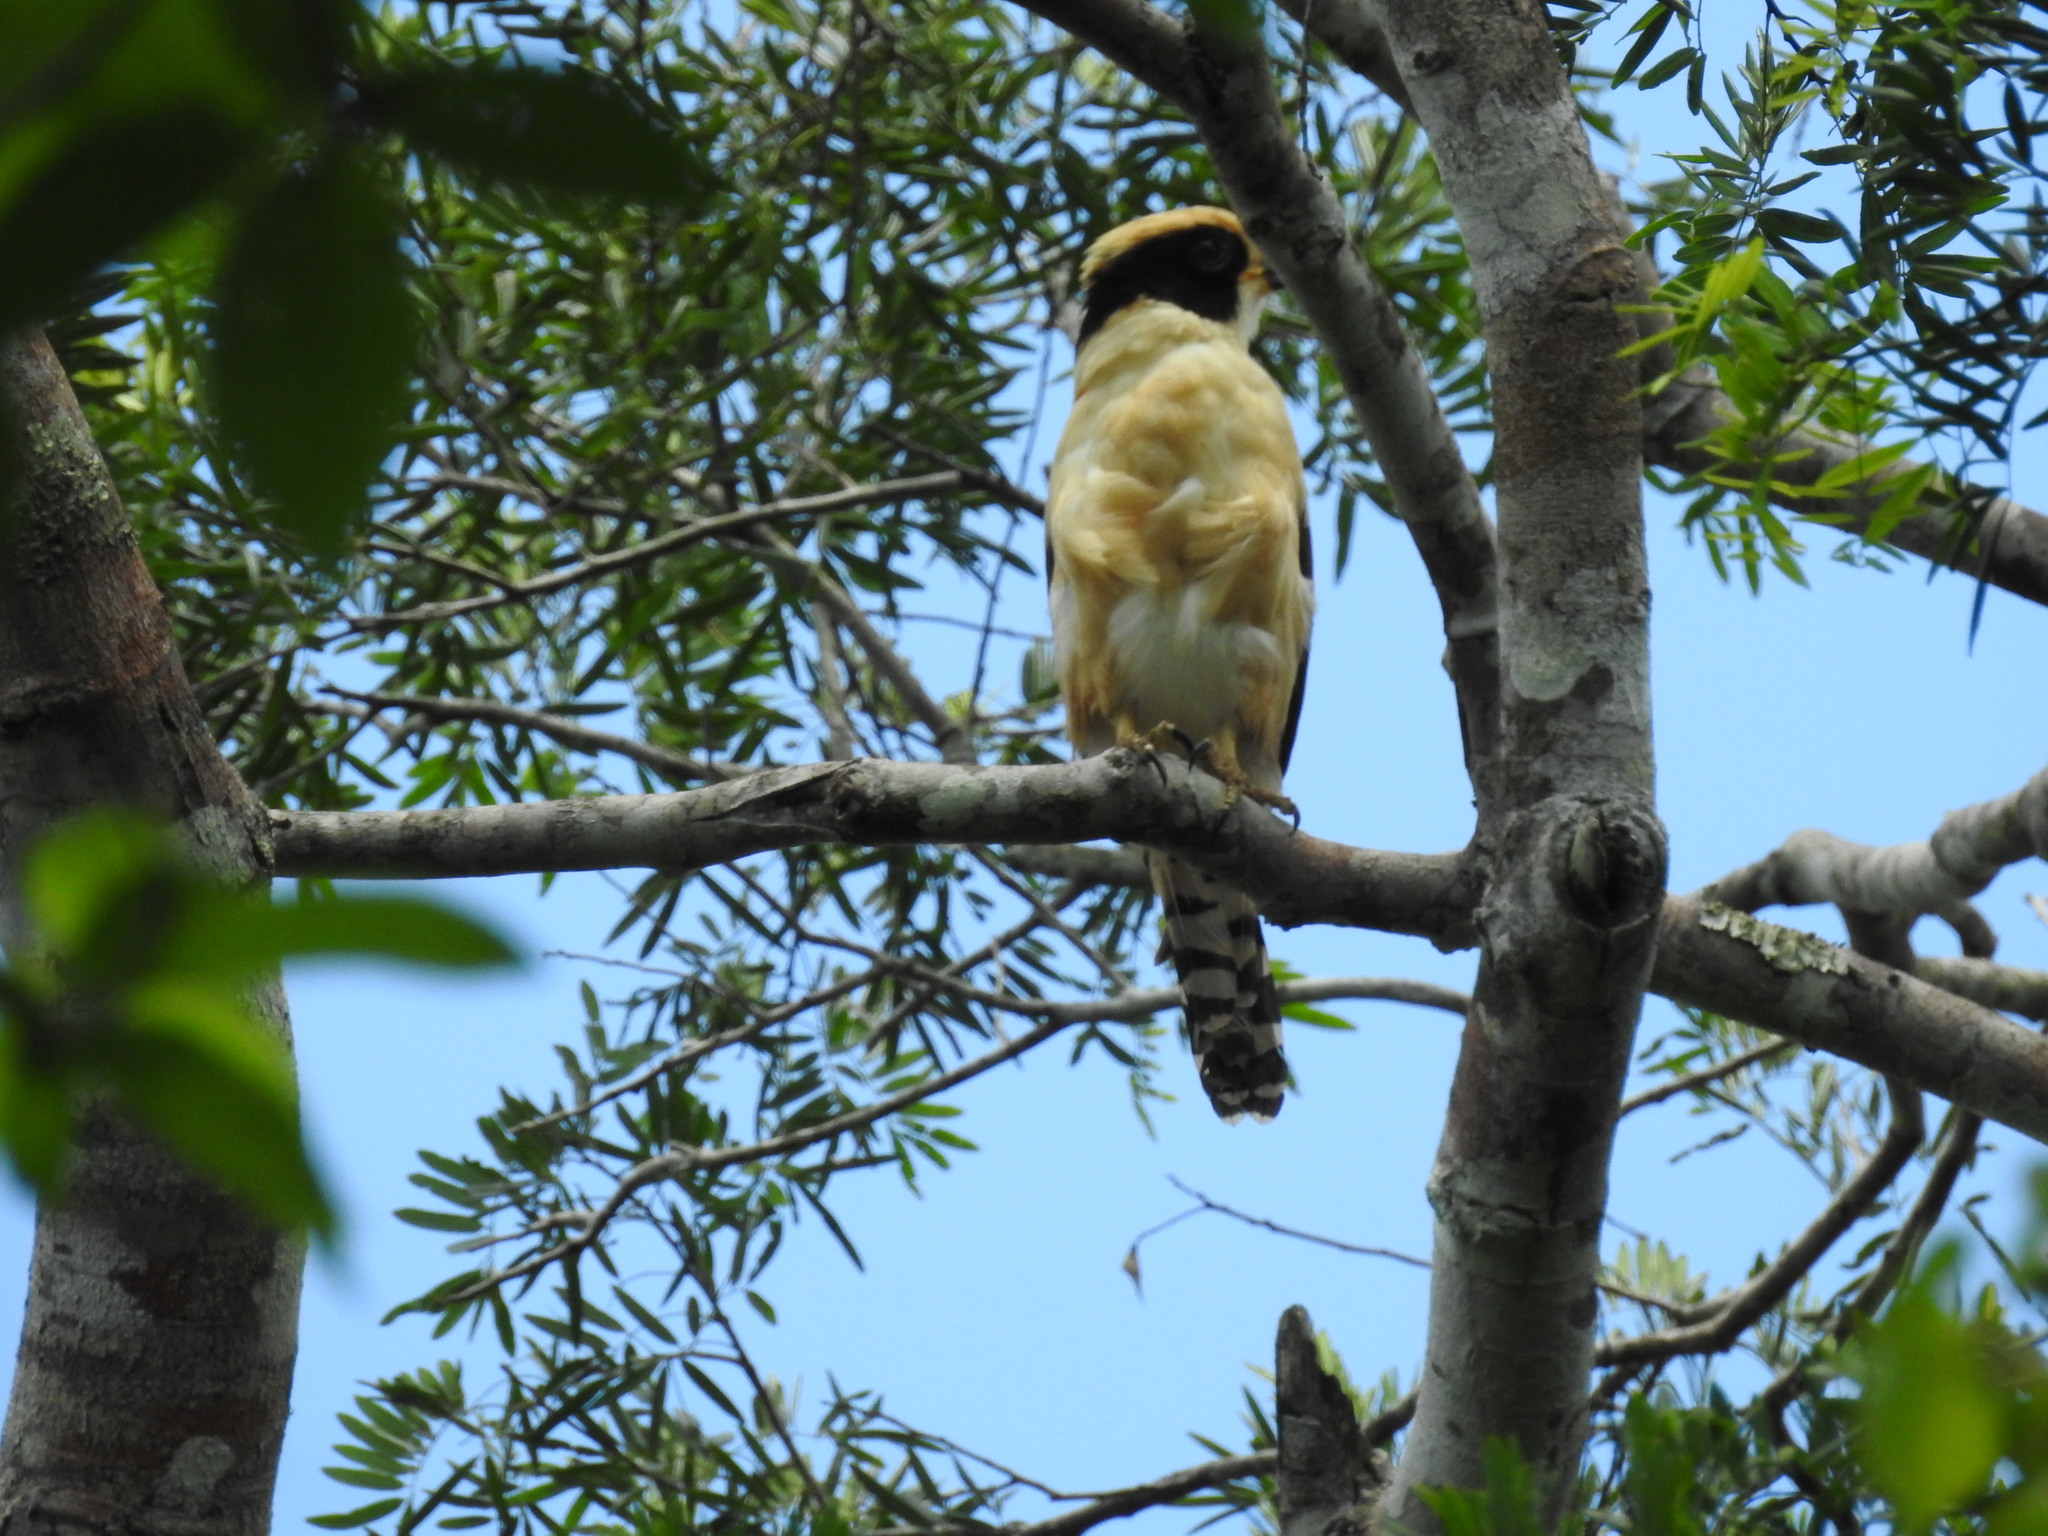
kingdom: Animalia
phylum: Chordata
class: Aves
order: Falconiformes
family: Falconidae
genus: Herpetotheres
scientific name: Herpetotheres cachinnans
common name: Laughing falcon
